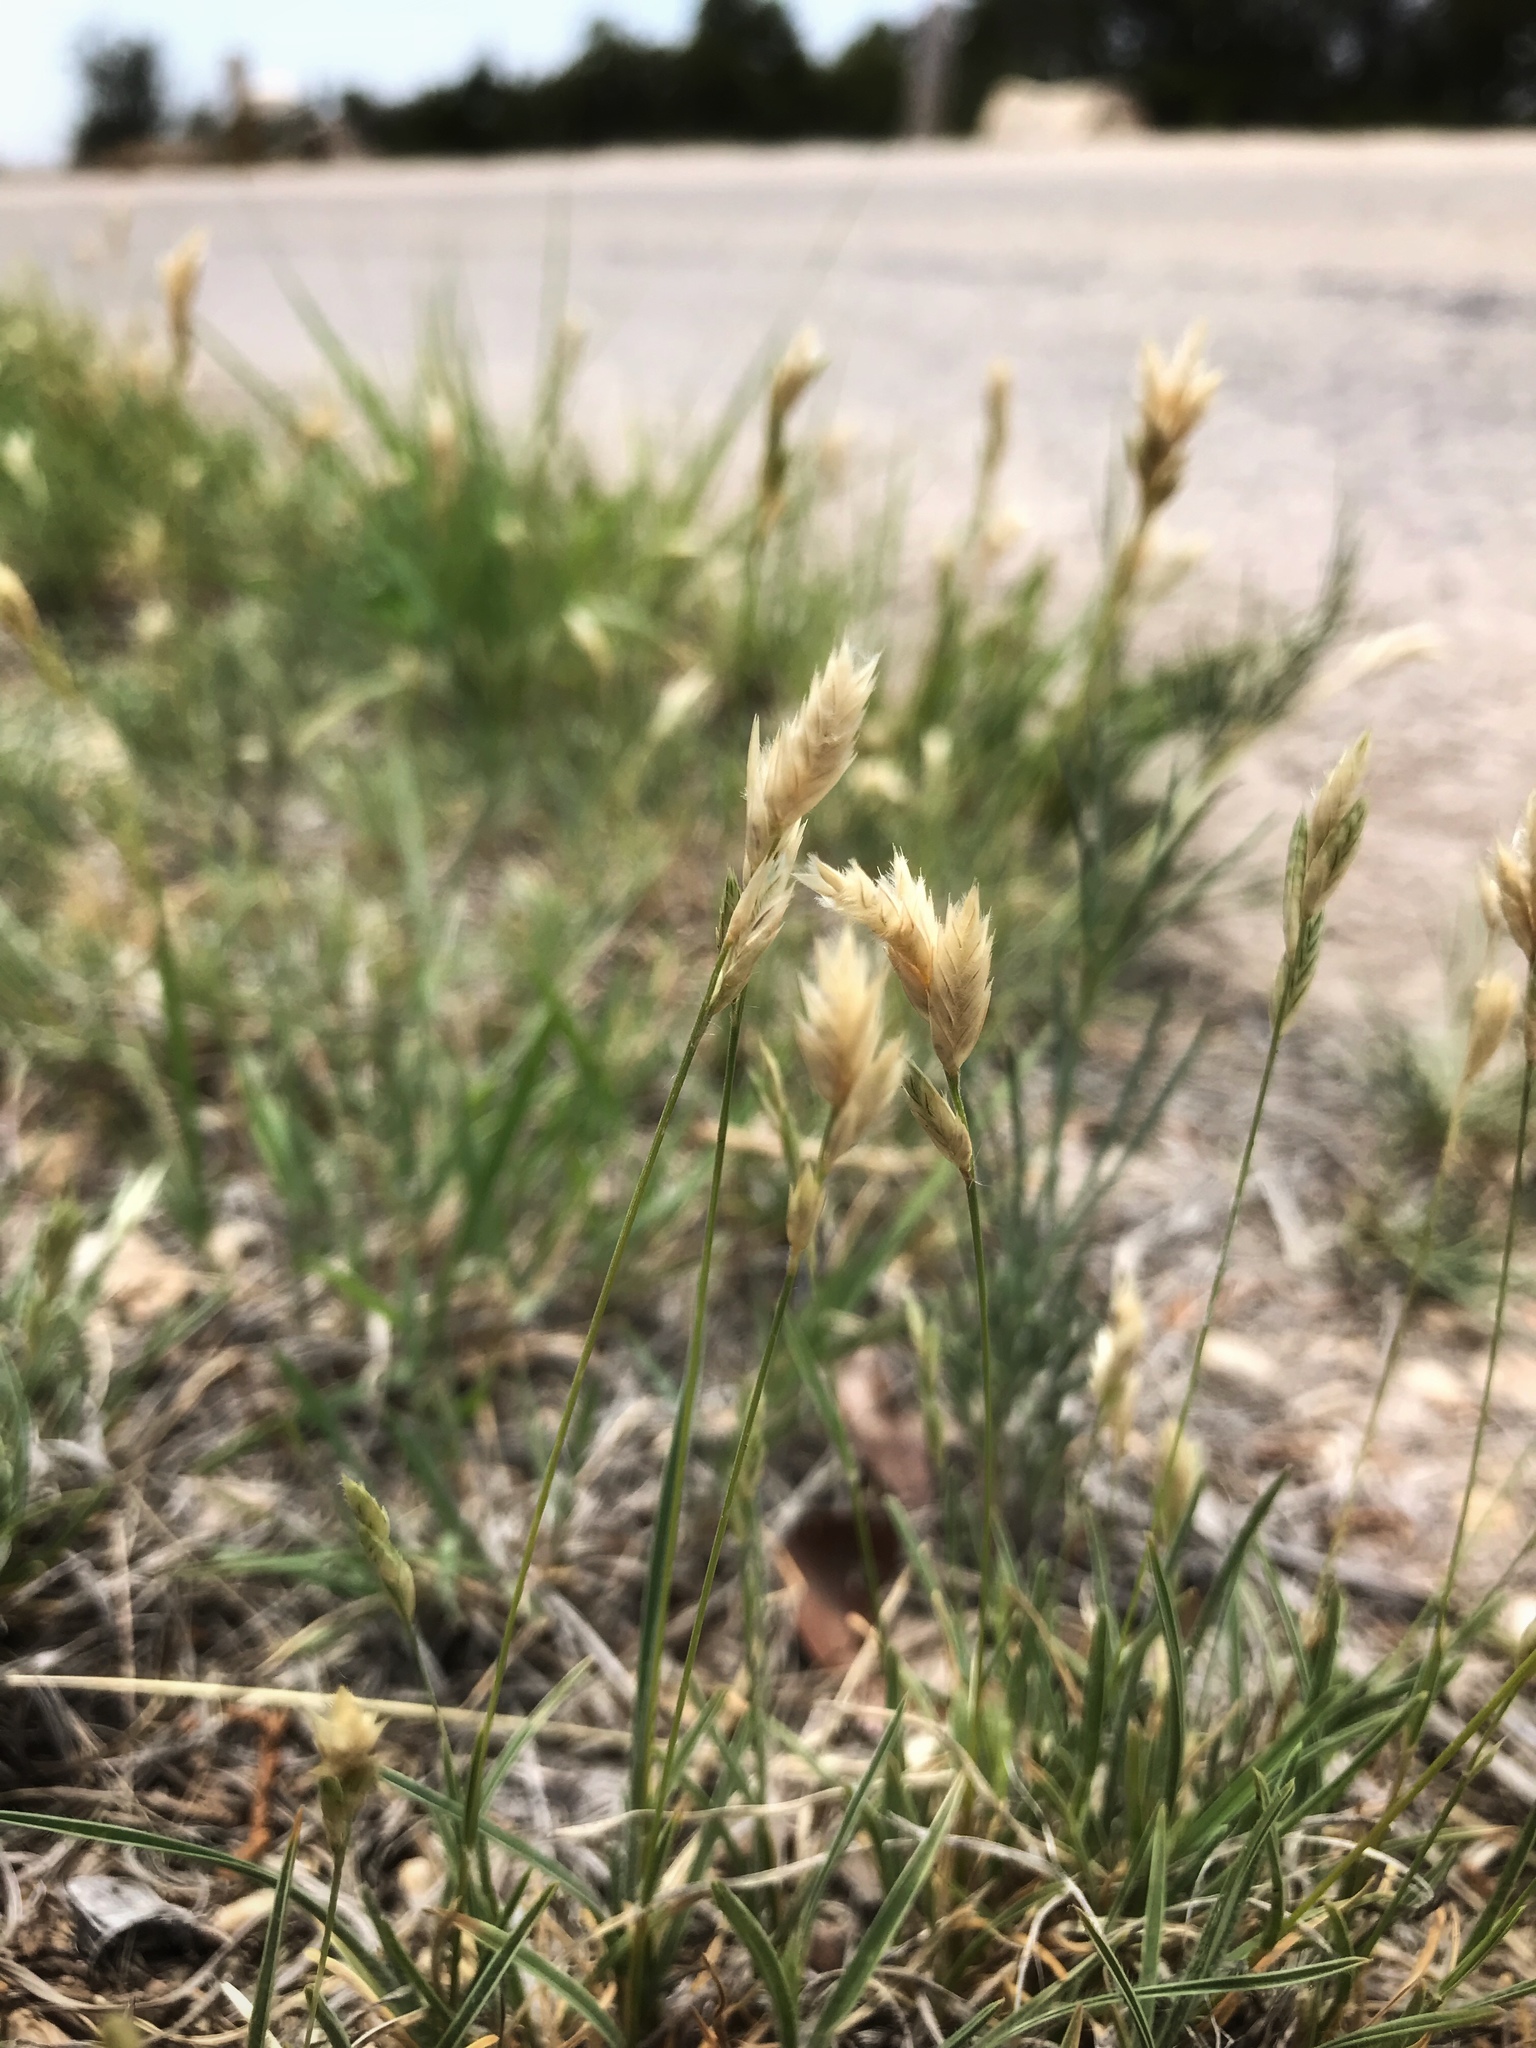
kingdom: Plantae
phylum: Tracheophyta
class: Liliopsida
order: Poales
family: Poaceae
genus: Erioneuron
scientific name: Erioneuron pilosum
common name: Hairy woolly grass
